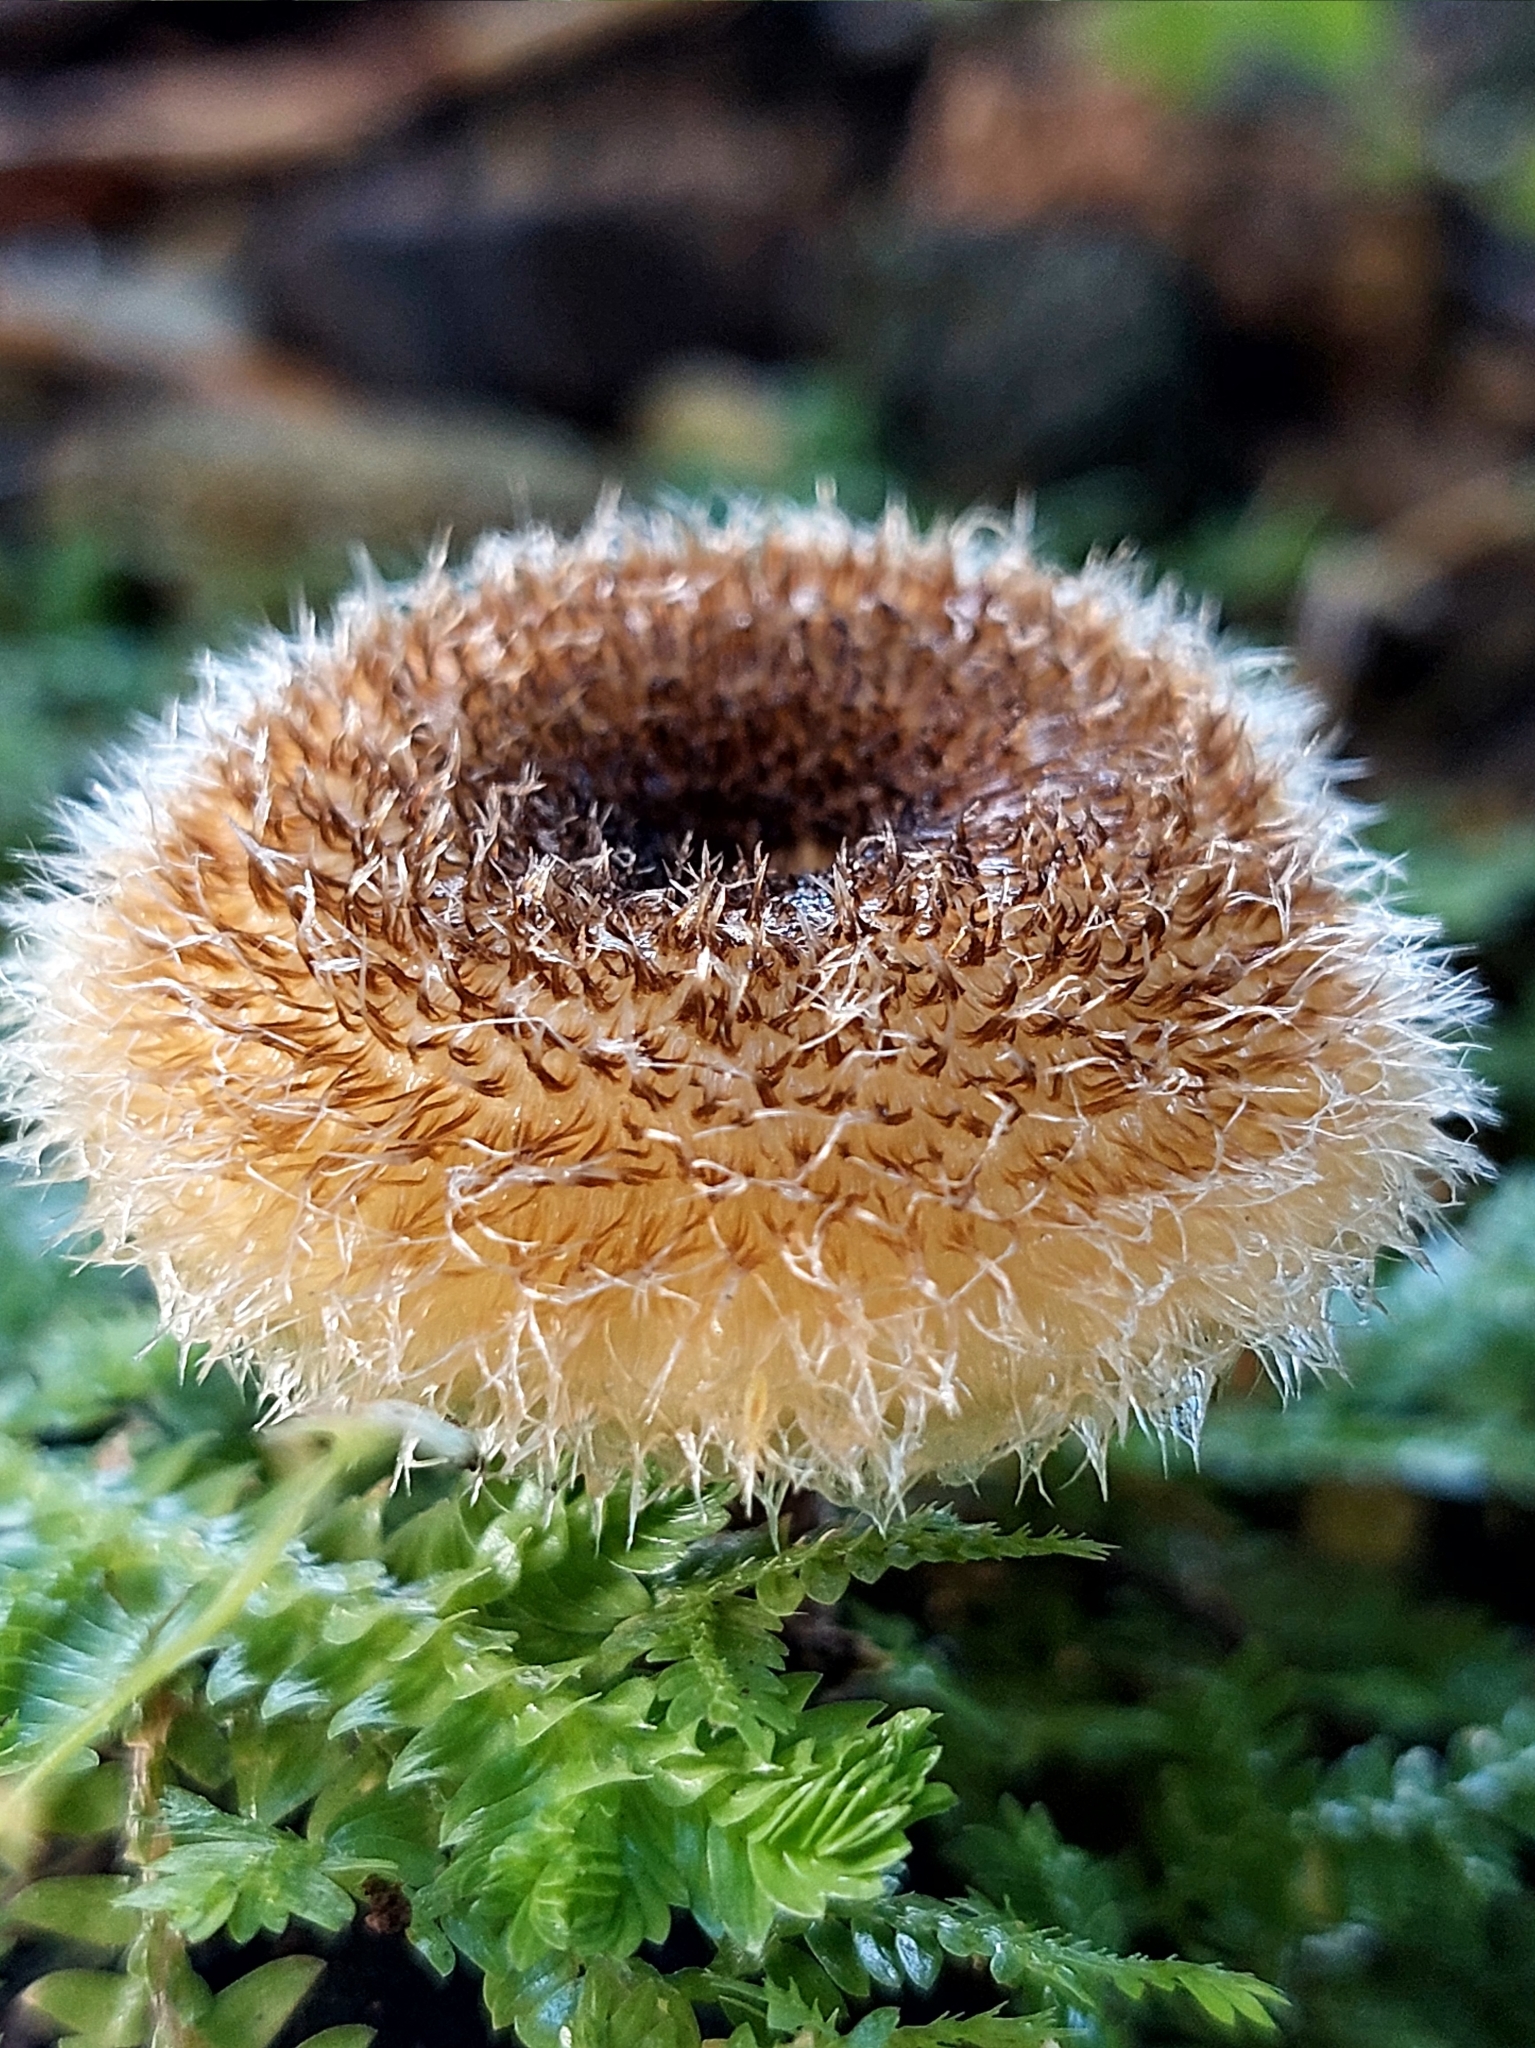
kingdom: Fungi
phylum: Basidiomycota
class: Agaricomycetes
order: Polyporales
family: Polyporaceae
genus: Lentinus
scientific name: Lentinus berteroi
